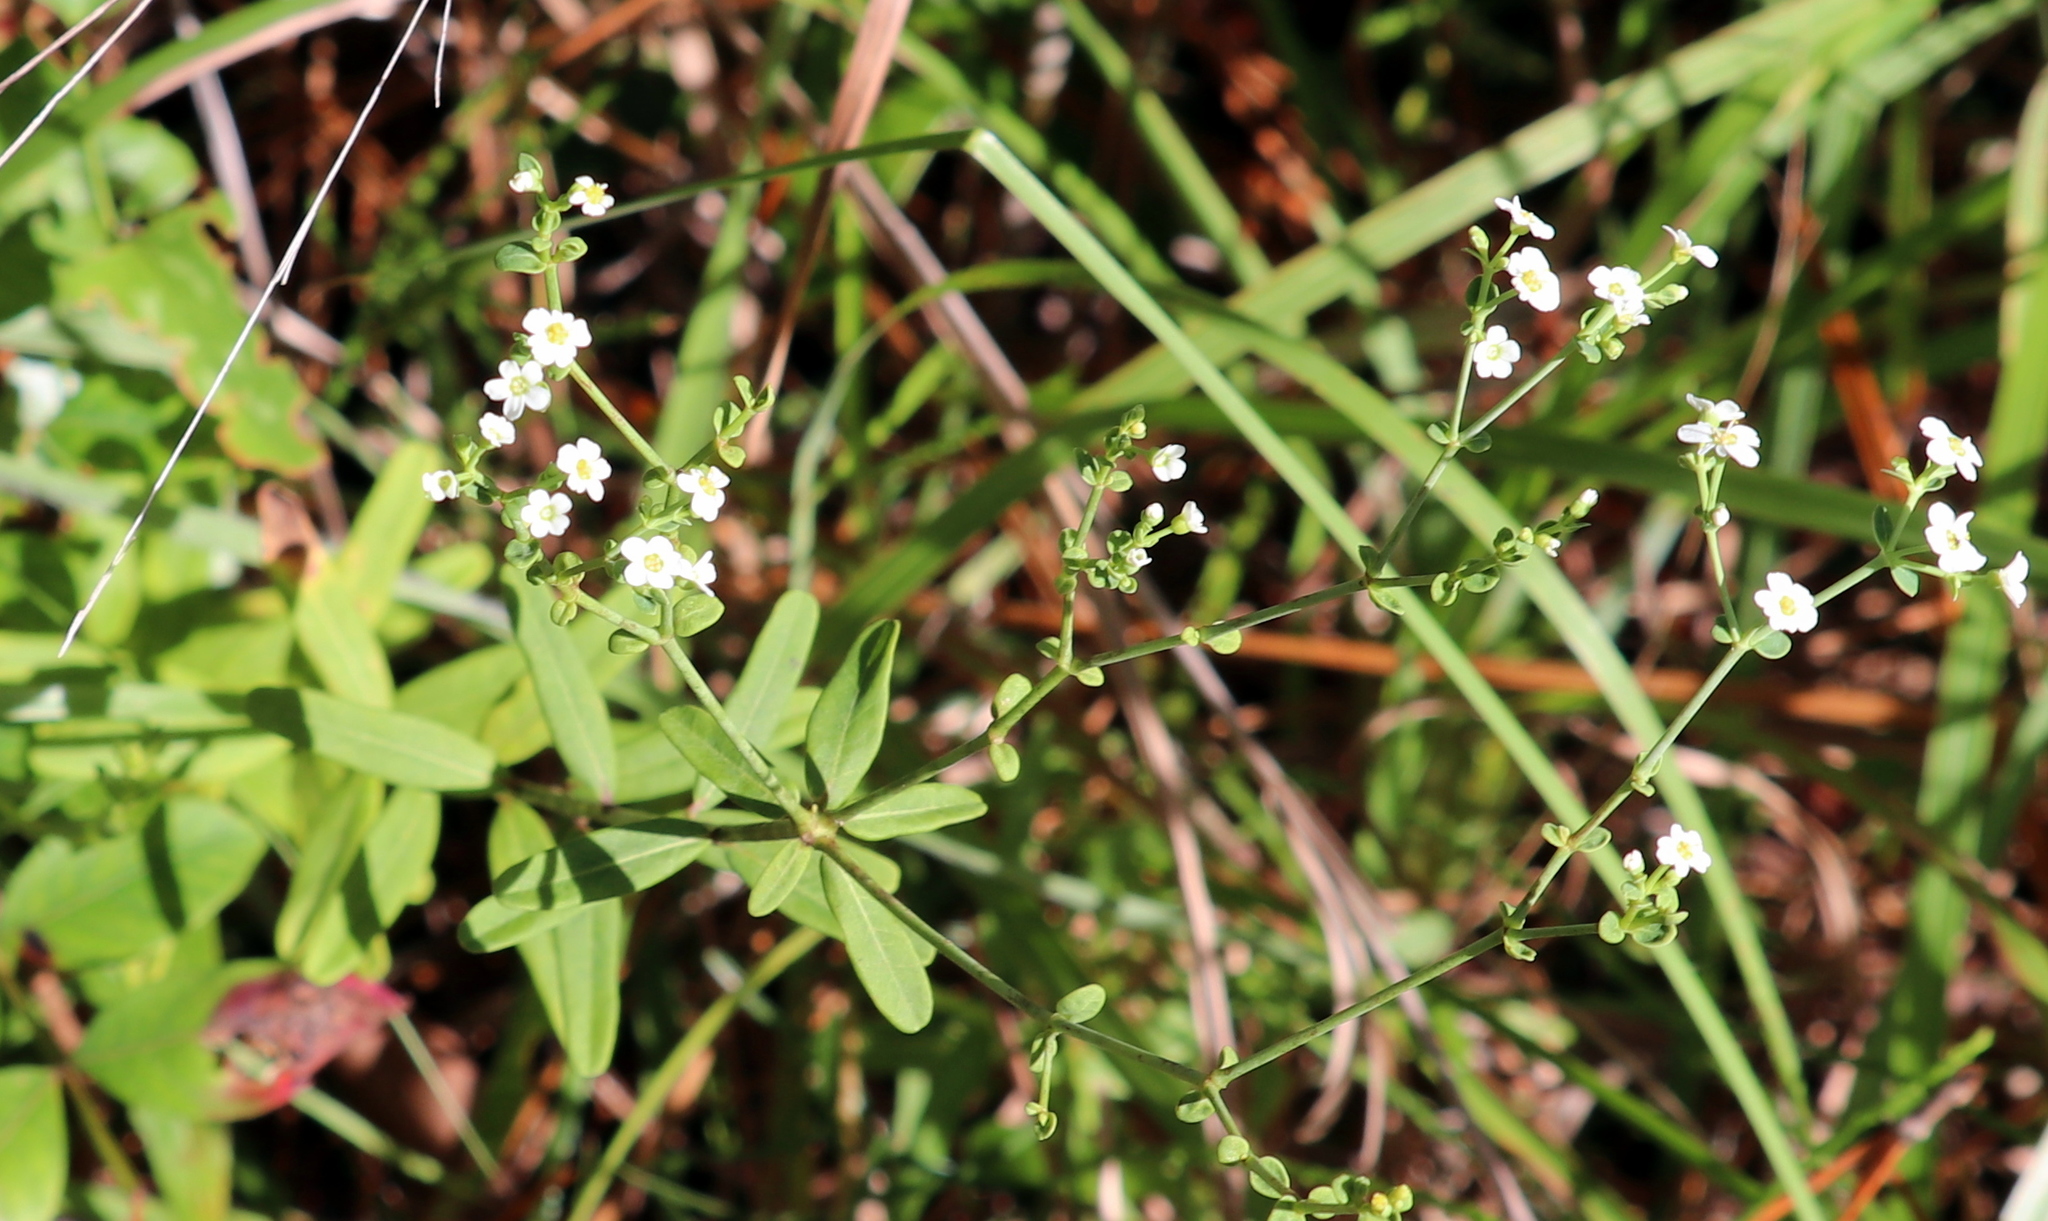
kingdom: Plantae
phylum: Tracheophyta
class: Magnoliopsida
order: Malpighiales
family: Euphorbiaceae
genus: Euphorbia
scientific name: Euphorbia corollata
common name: Flowering spurge
